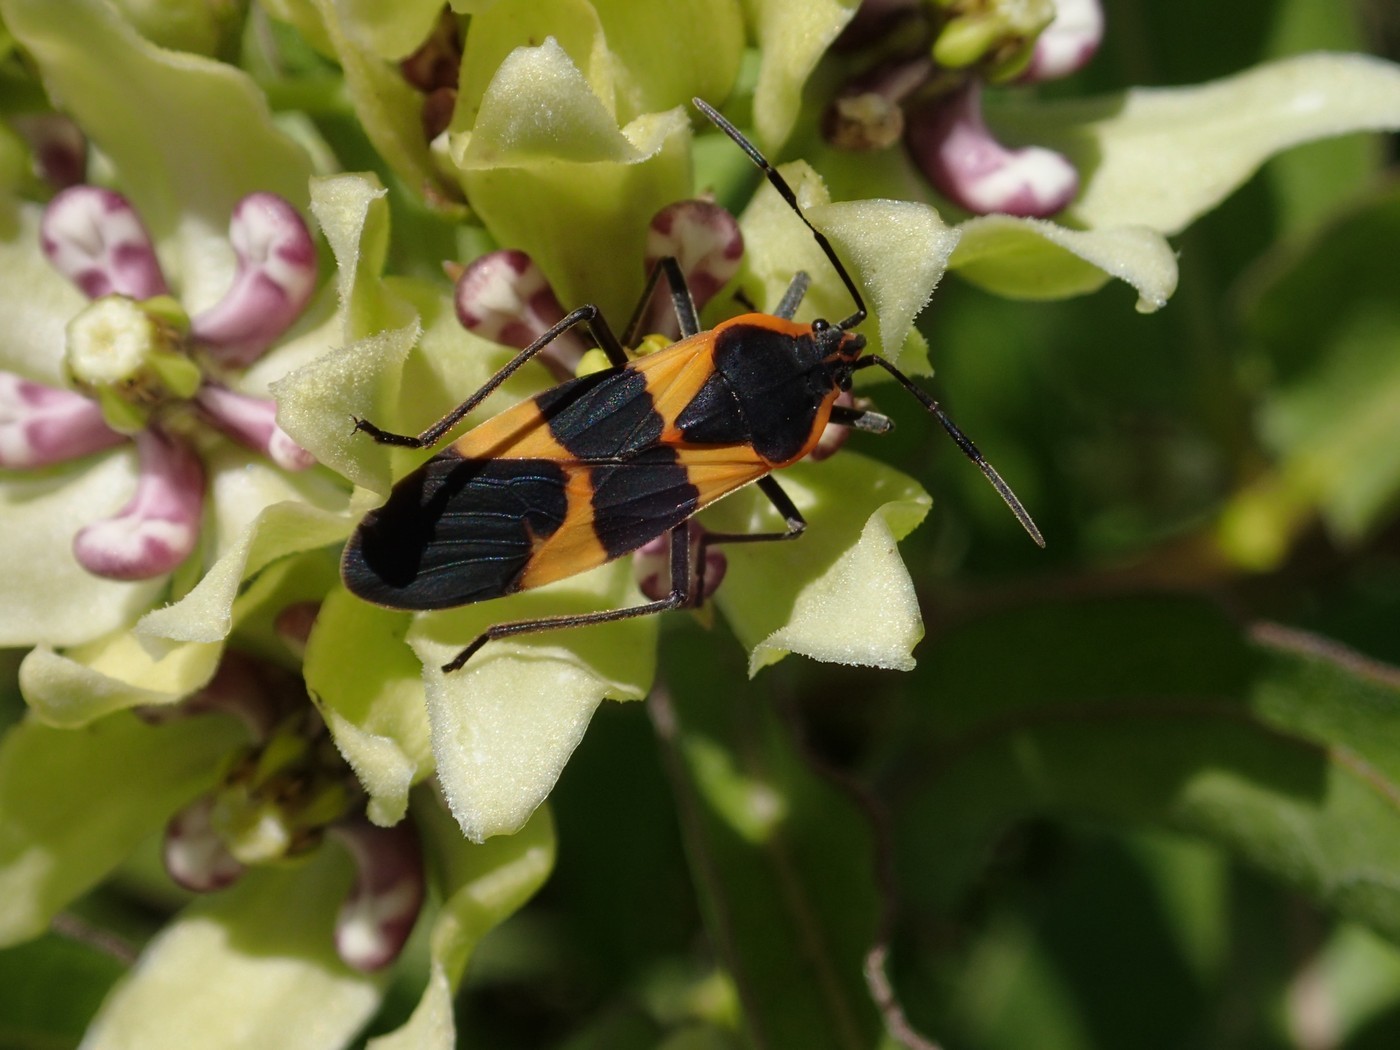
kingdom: Animalia
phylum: Arthropoda
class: Insecta
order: Hemiptera
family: Lygaeidae
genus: Oncopeltus
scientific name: Oncopeltus fasciatus
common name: Large milkweed bug
